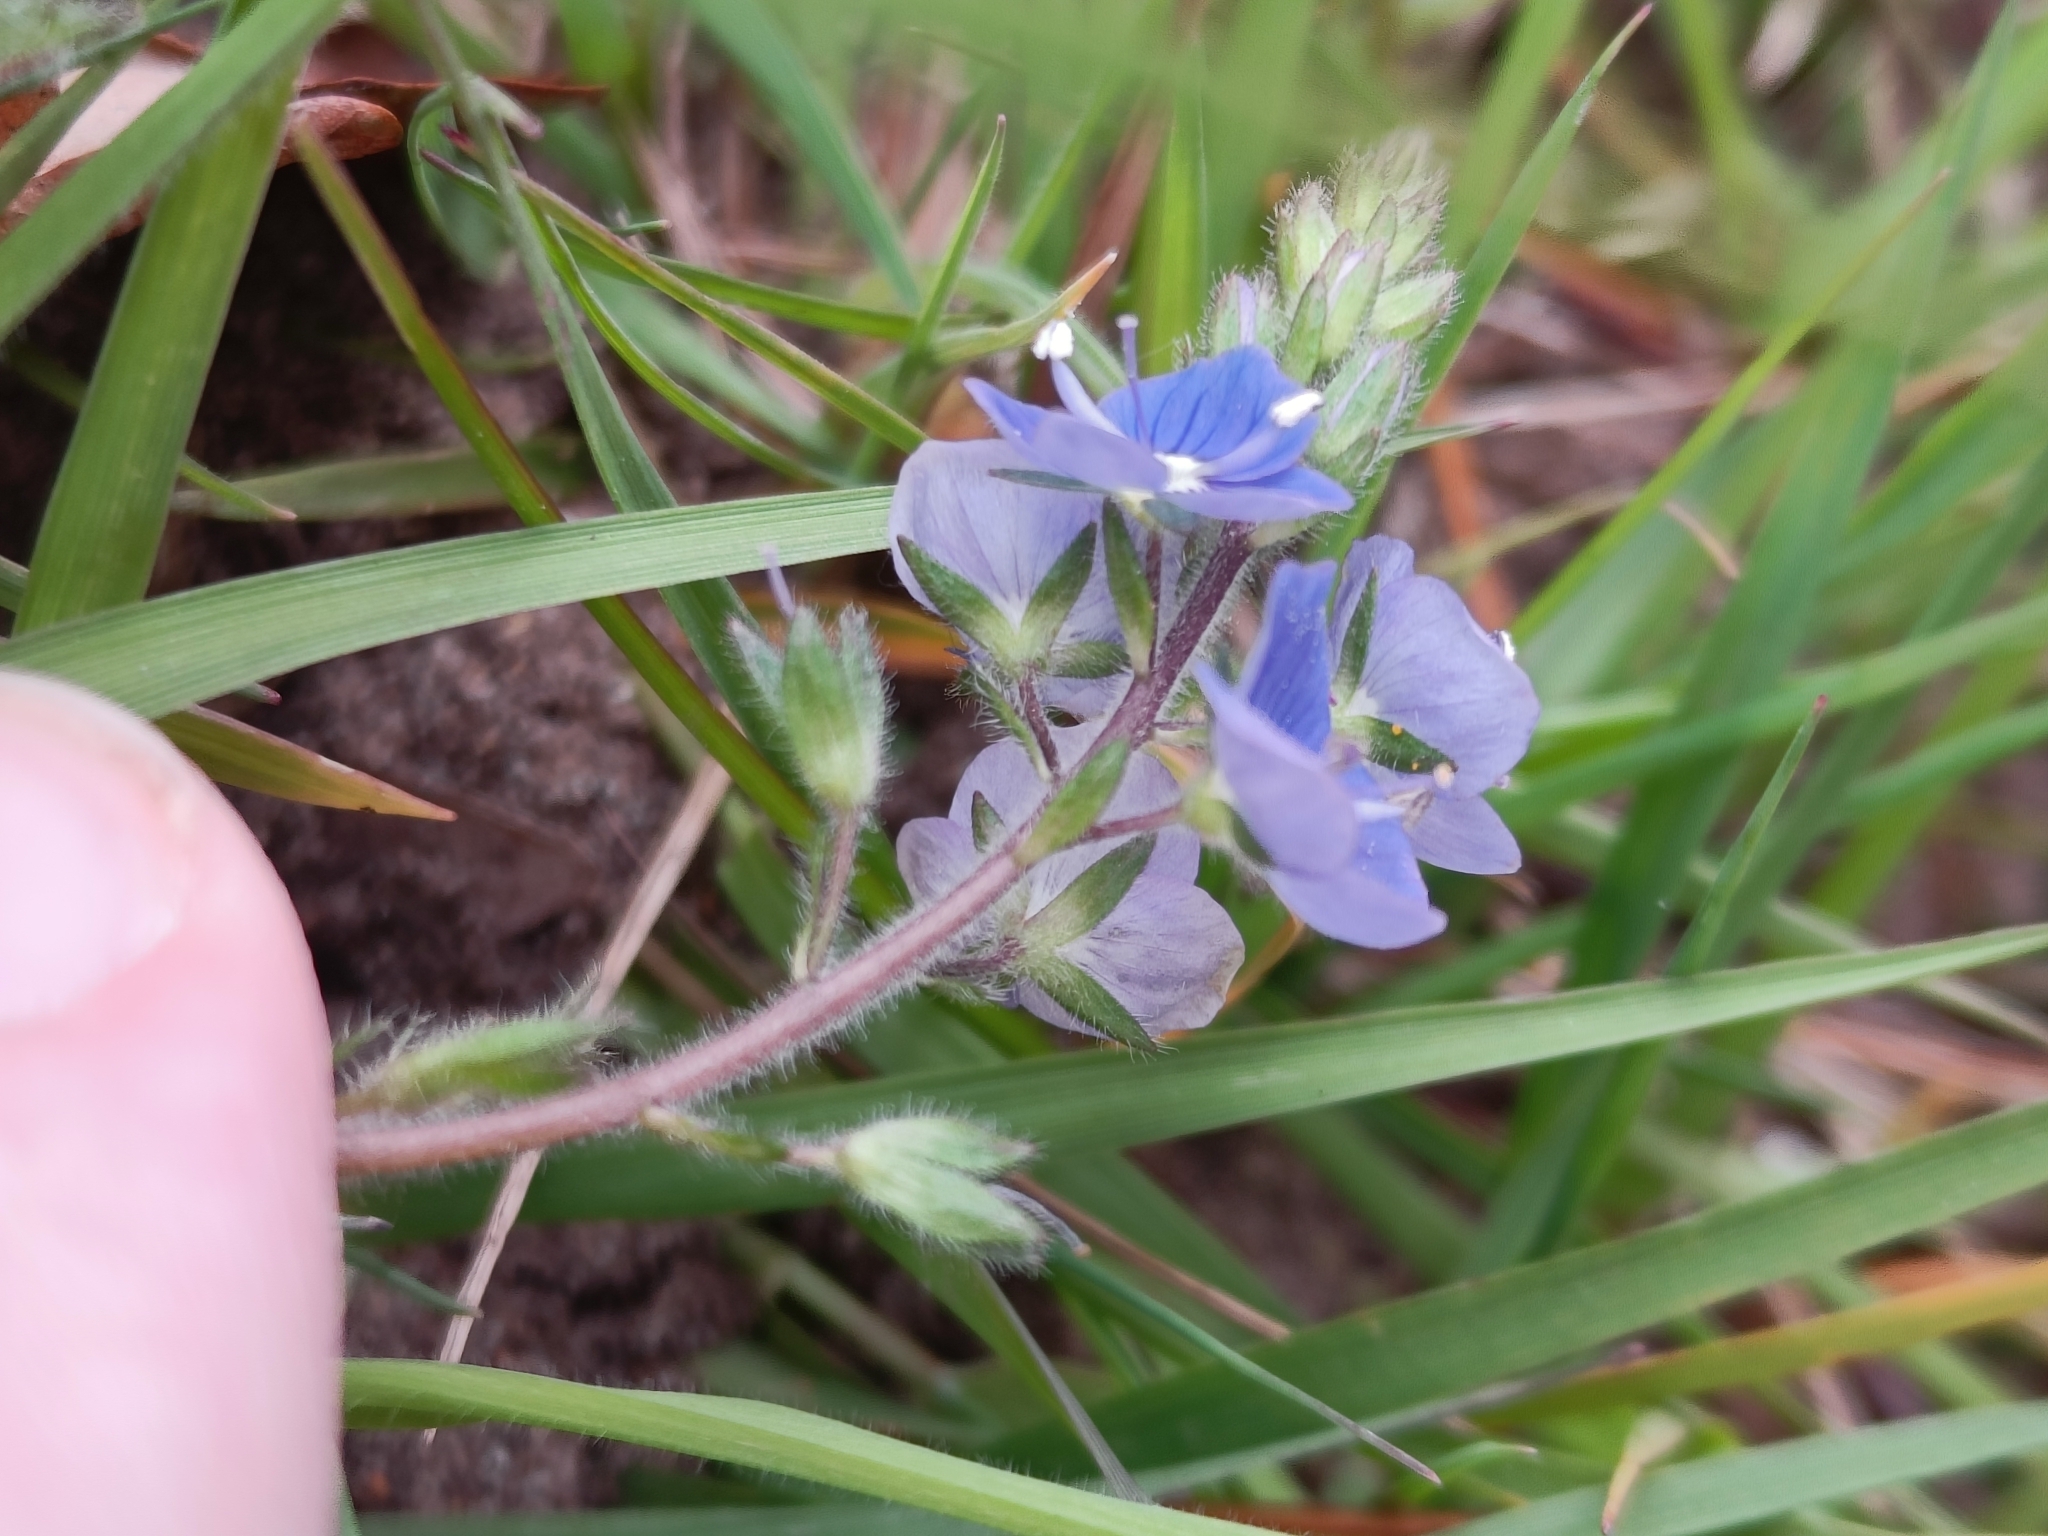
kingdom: Plantae
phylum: Tracheophyta
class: Magnoliopsida
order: Lamiales
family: Plantaginaceae
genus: Veronica
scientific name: Veronica chamaedrys
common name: Germander speedwell
